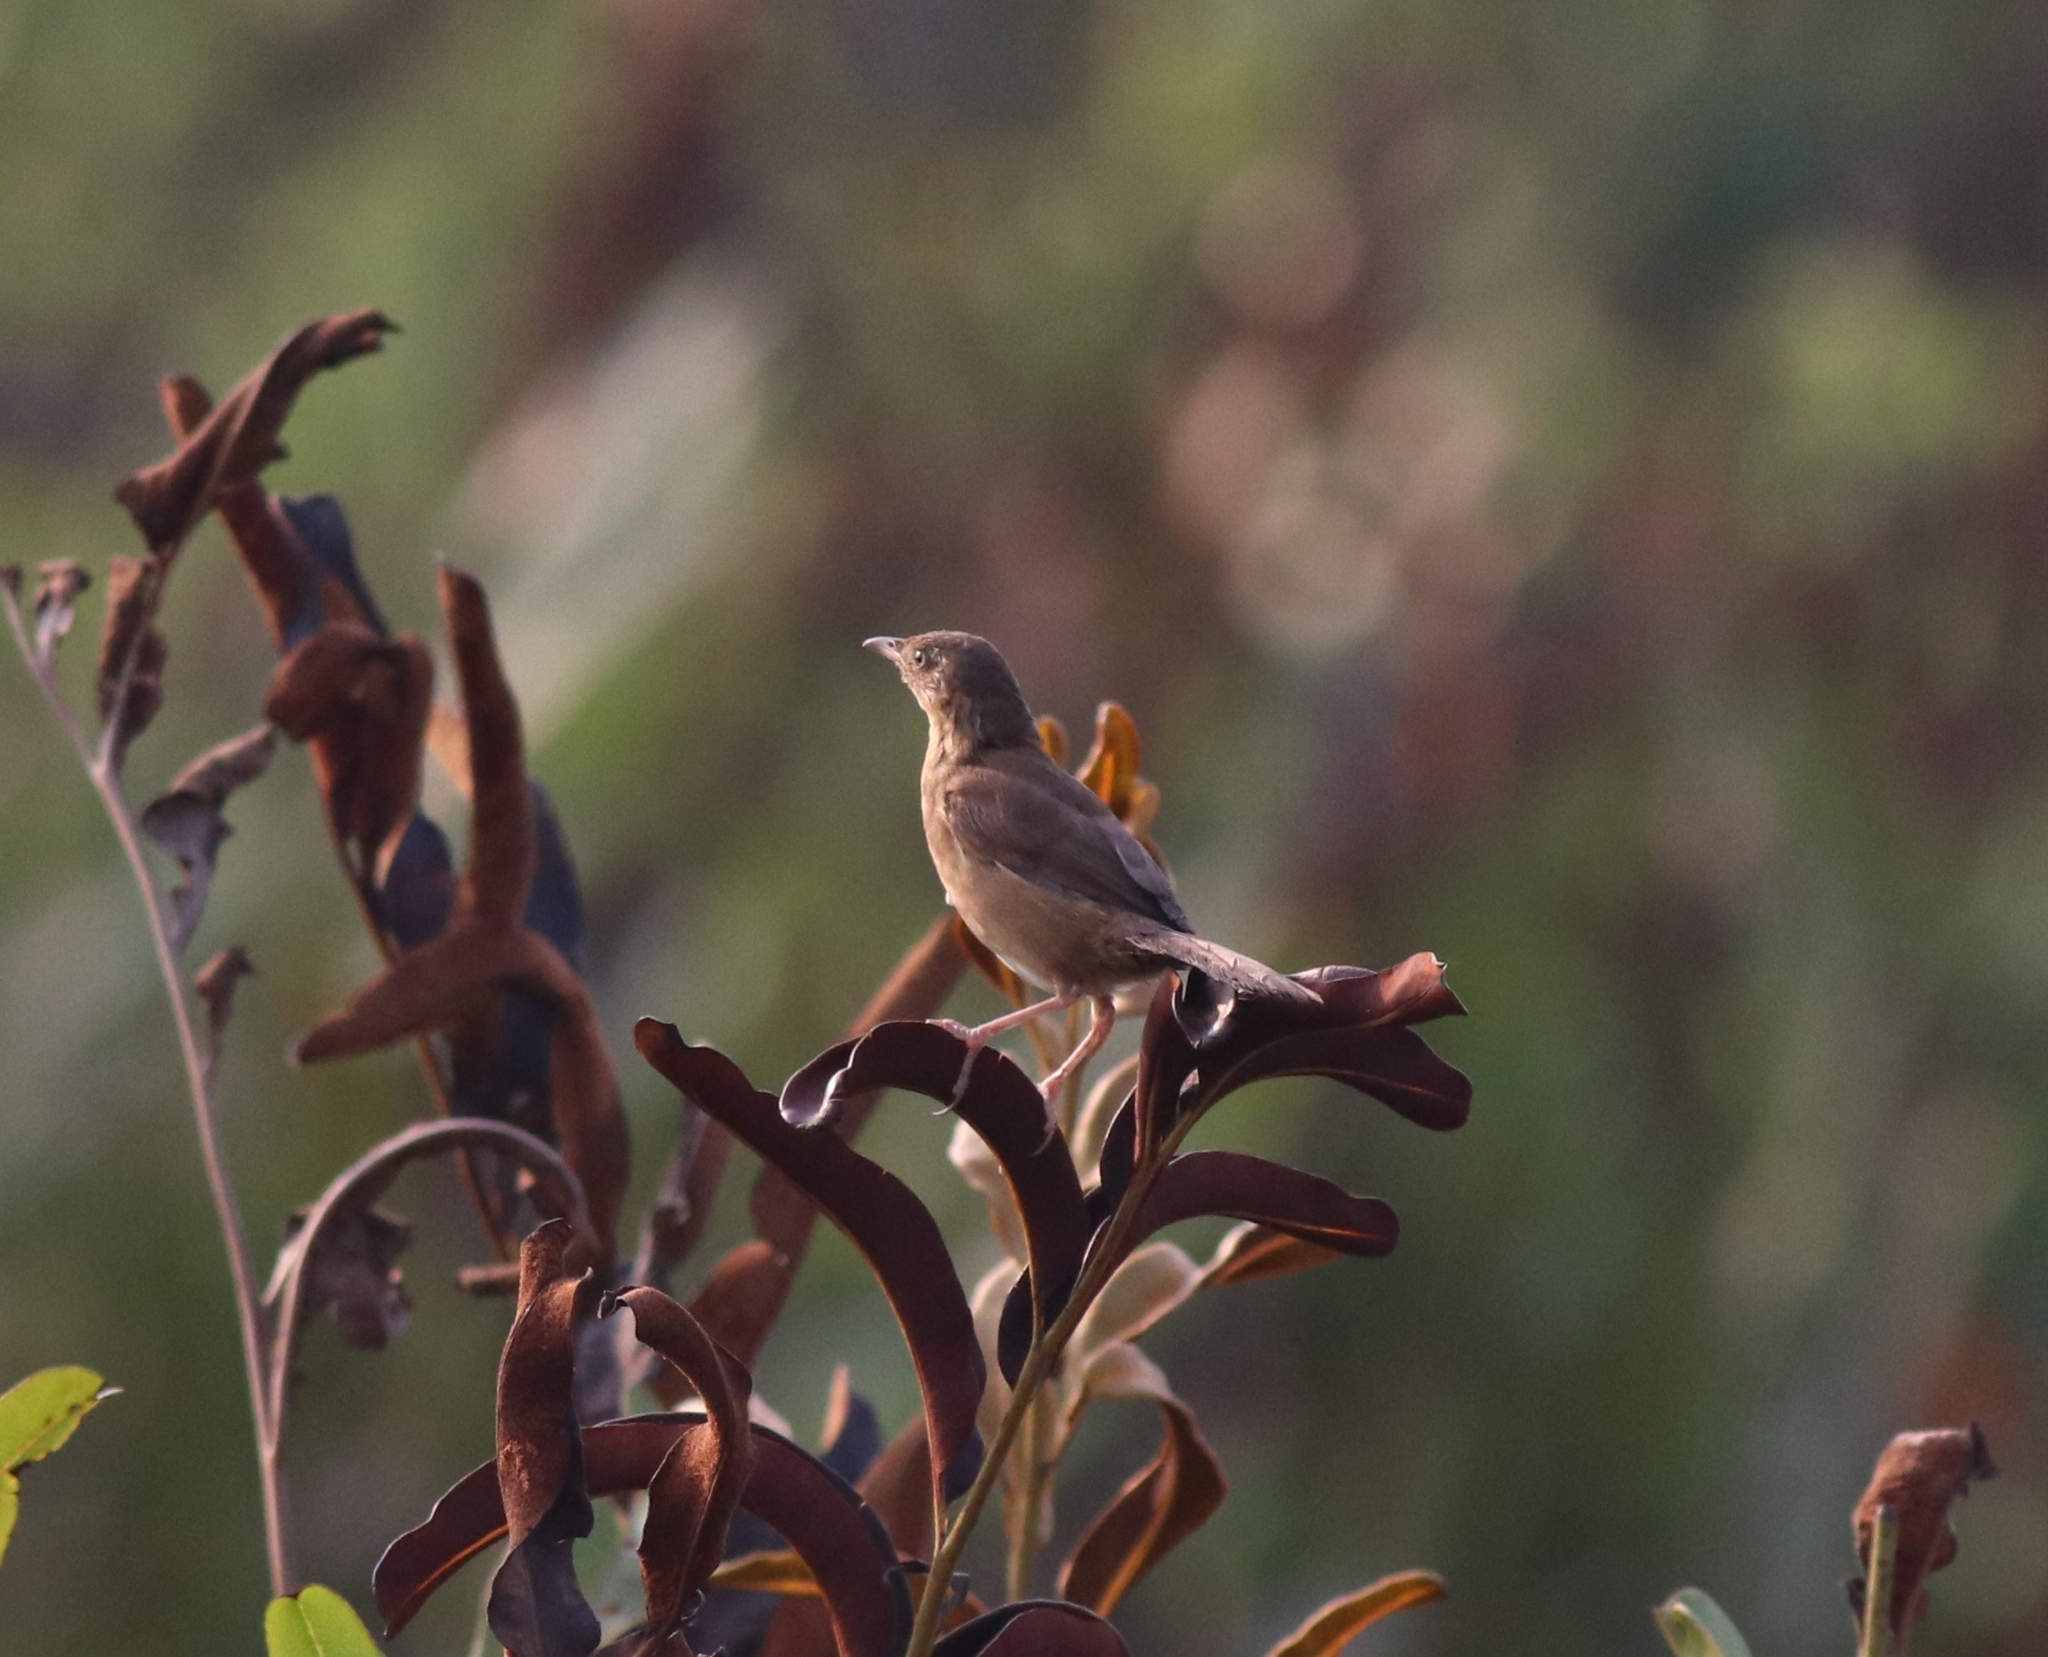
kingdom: Animalia
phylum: Chordata
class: Aves
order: Passeriformes
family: Locustellidae
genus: Schoenicola
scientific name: Schoenicola platyurus
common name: Broad-tailed grassbird
